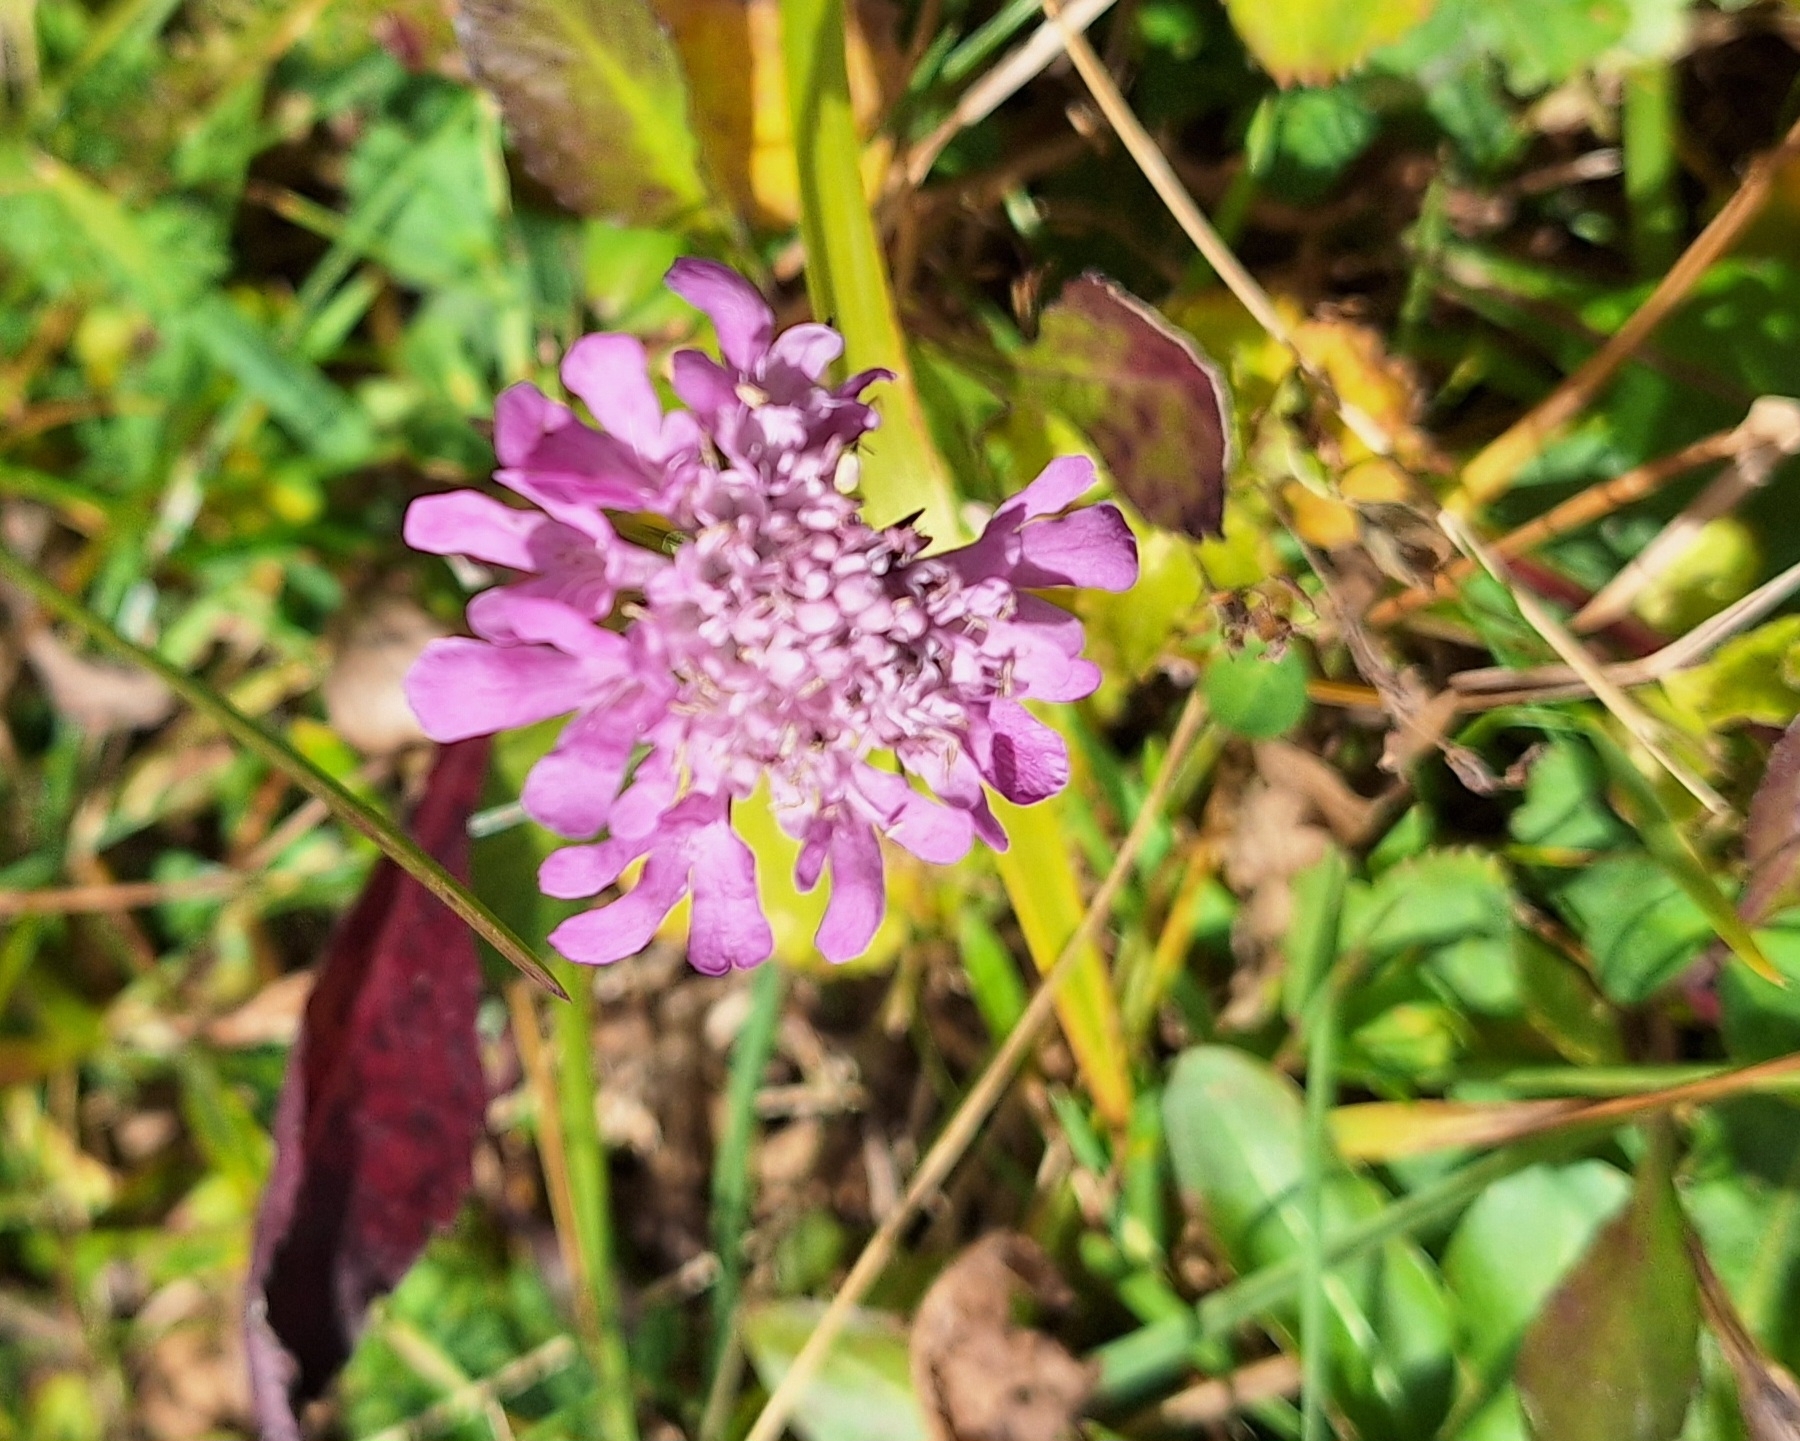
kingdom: Plantae
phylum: Tracheophyta
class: Magnoliopsida
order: Dipsacales
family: Caprifoliaceae
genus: Scabiosa
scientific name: Scabiosa lucida
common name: Shining scabious
